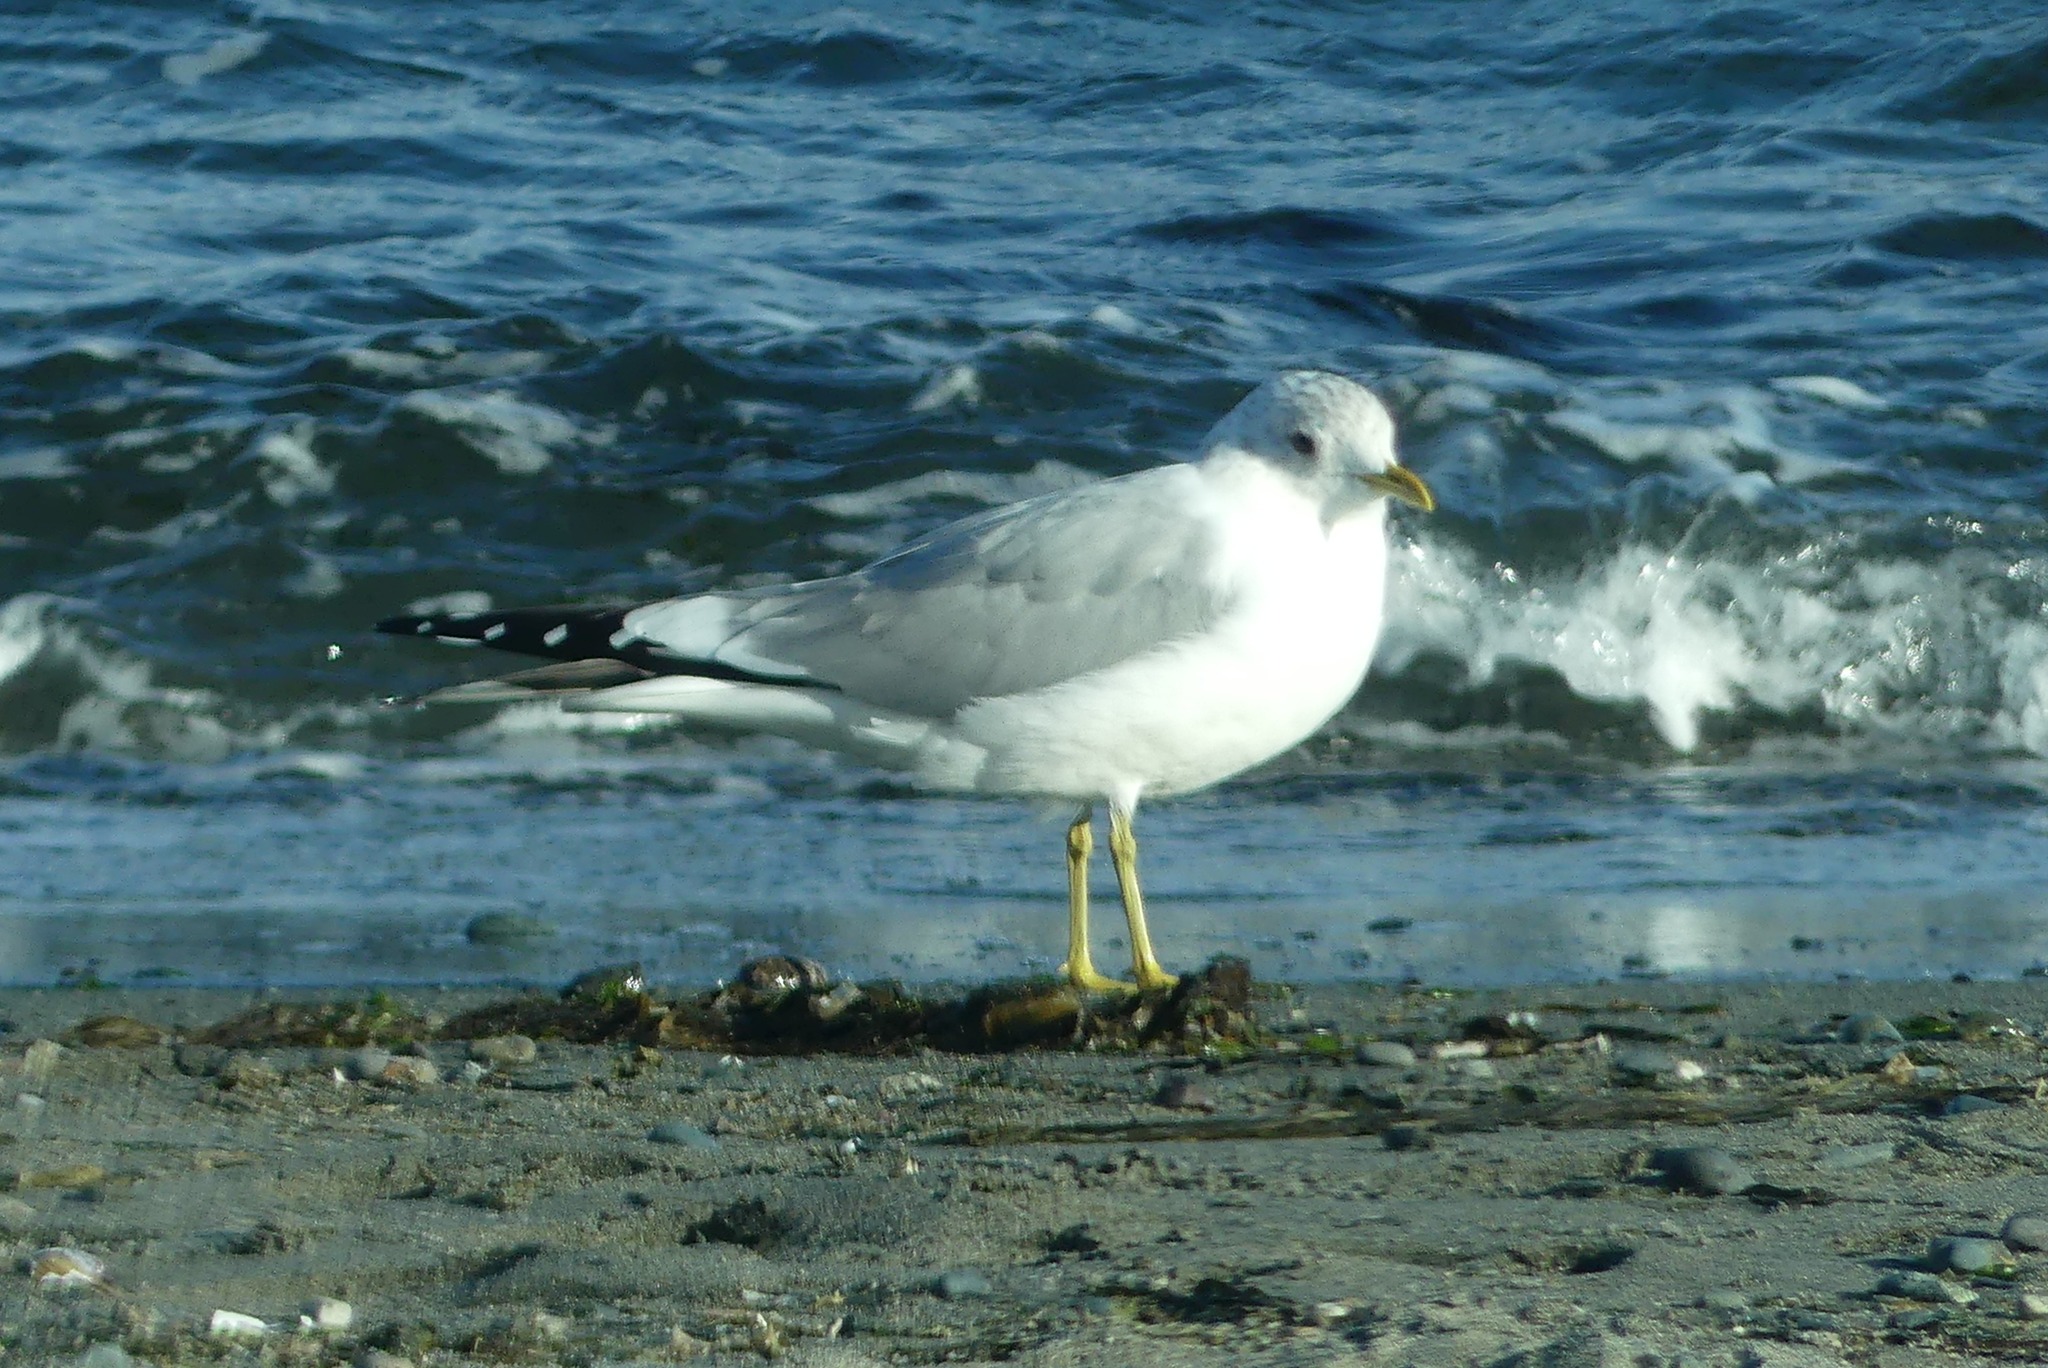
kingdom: Animalia
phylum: Chordata
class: Aves
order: Charadriiformes
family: Laridae
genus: Larus
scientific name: Larus brachyrhynchus
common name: Short-billed gull
